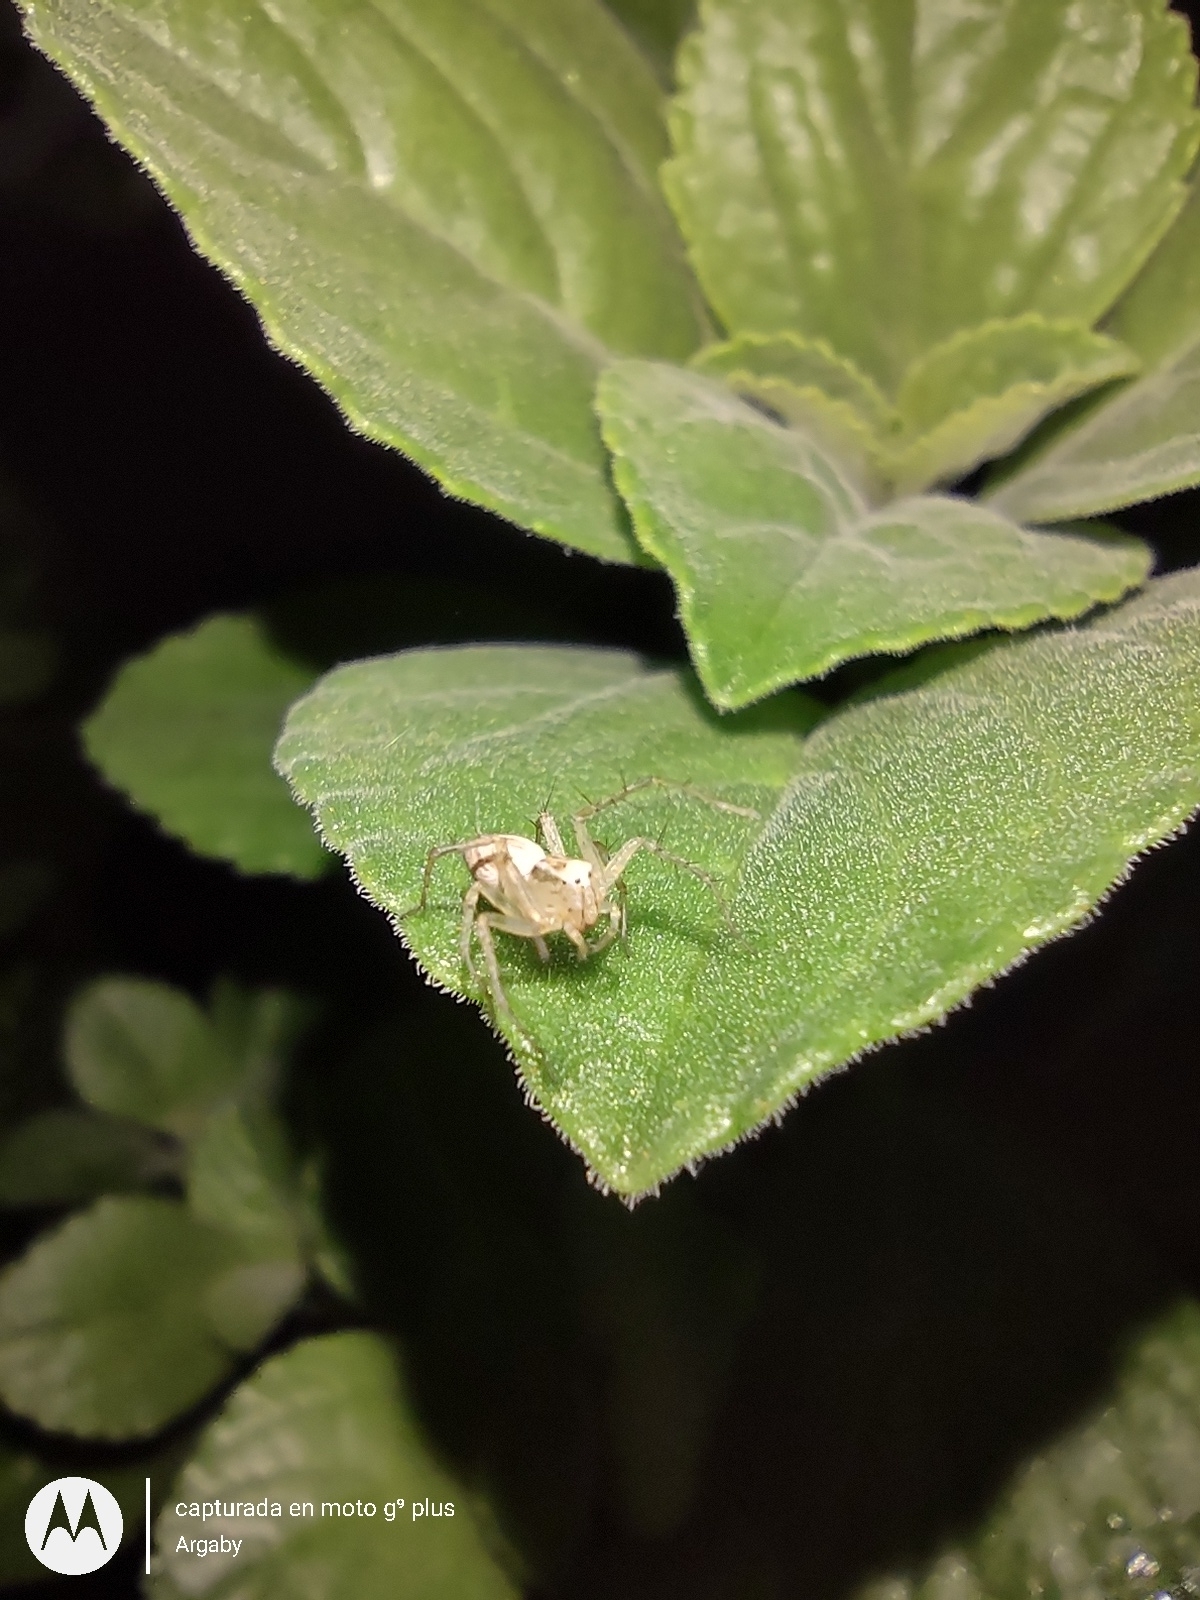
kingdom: Animalia
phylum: Arthropoda
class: Arachnida
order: Araneae
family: Oxyopidae
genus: Oxyopes
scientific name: Oxyopes salticus
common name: Lynx spiders
